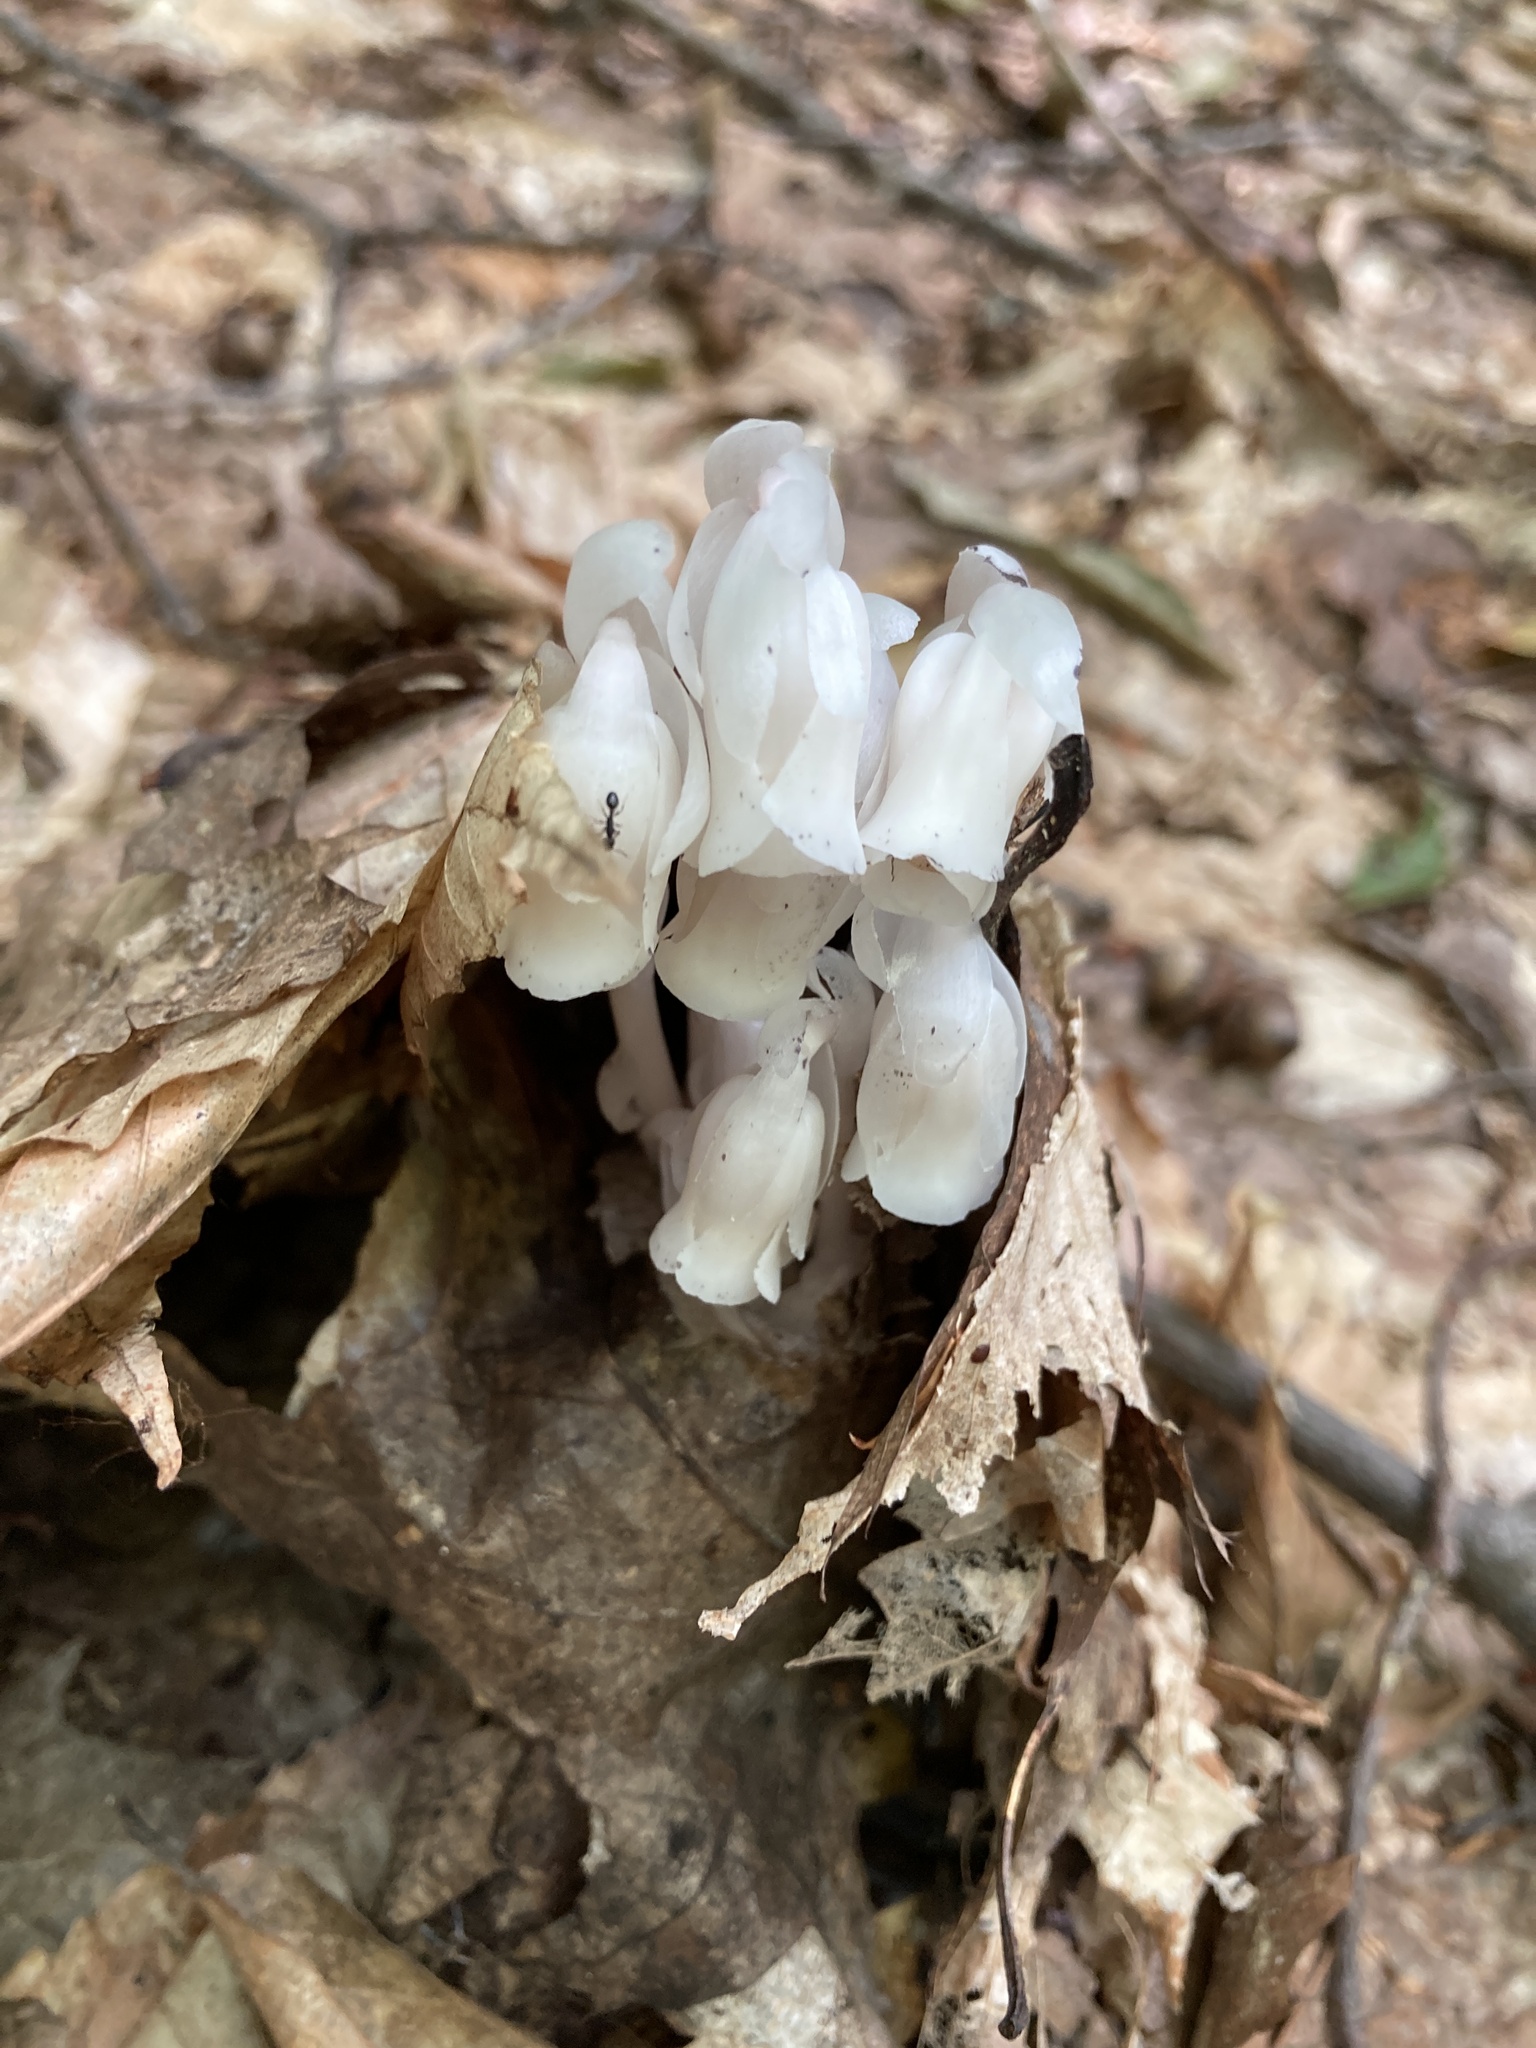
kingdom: Plantae
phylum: Tracheophyta
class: Magnoliopsida
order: Ericales
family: Ericaceae
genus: Monotropa
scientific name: Monotropa uniflora
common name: Convulsion root
